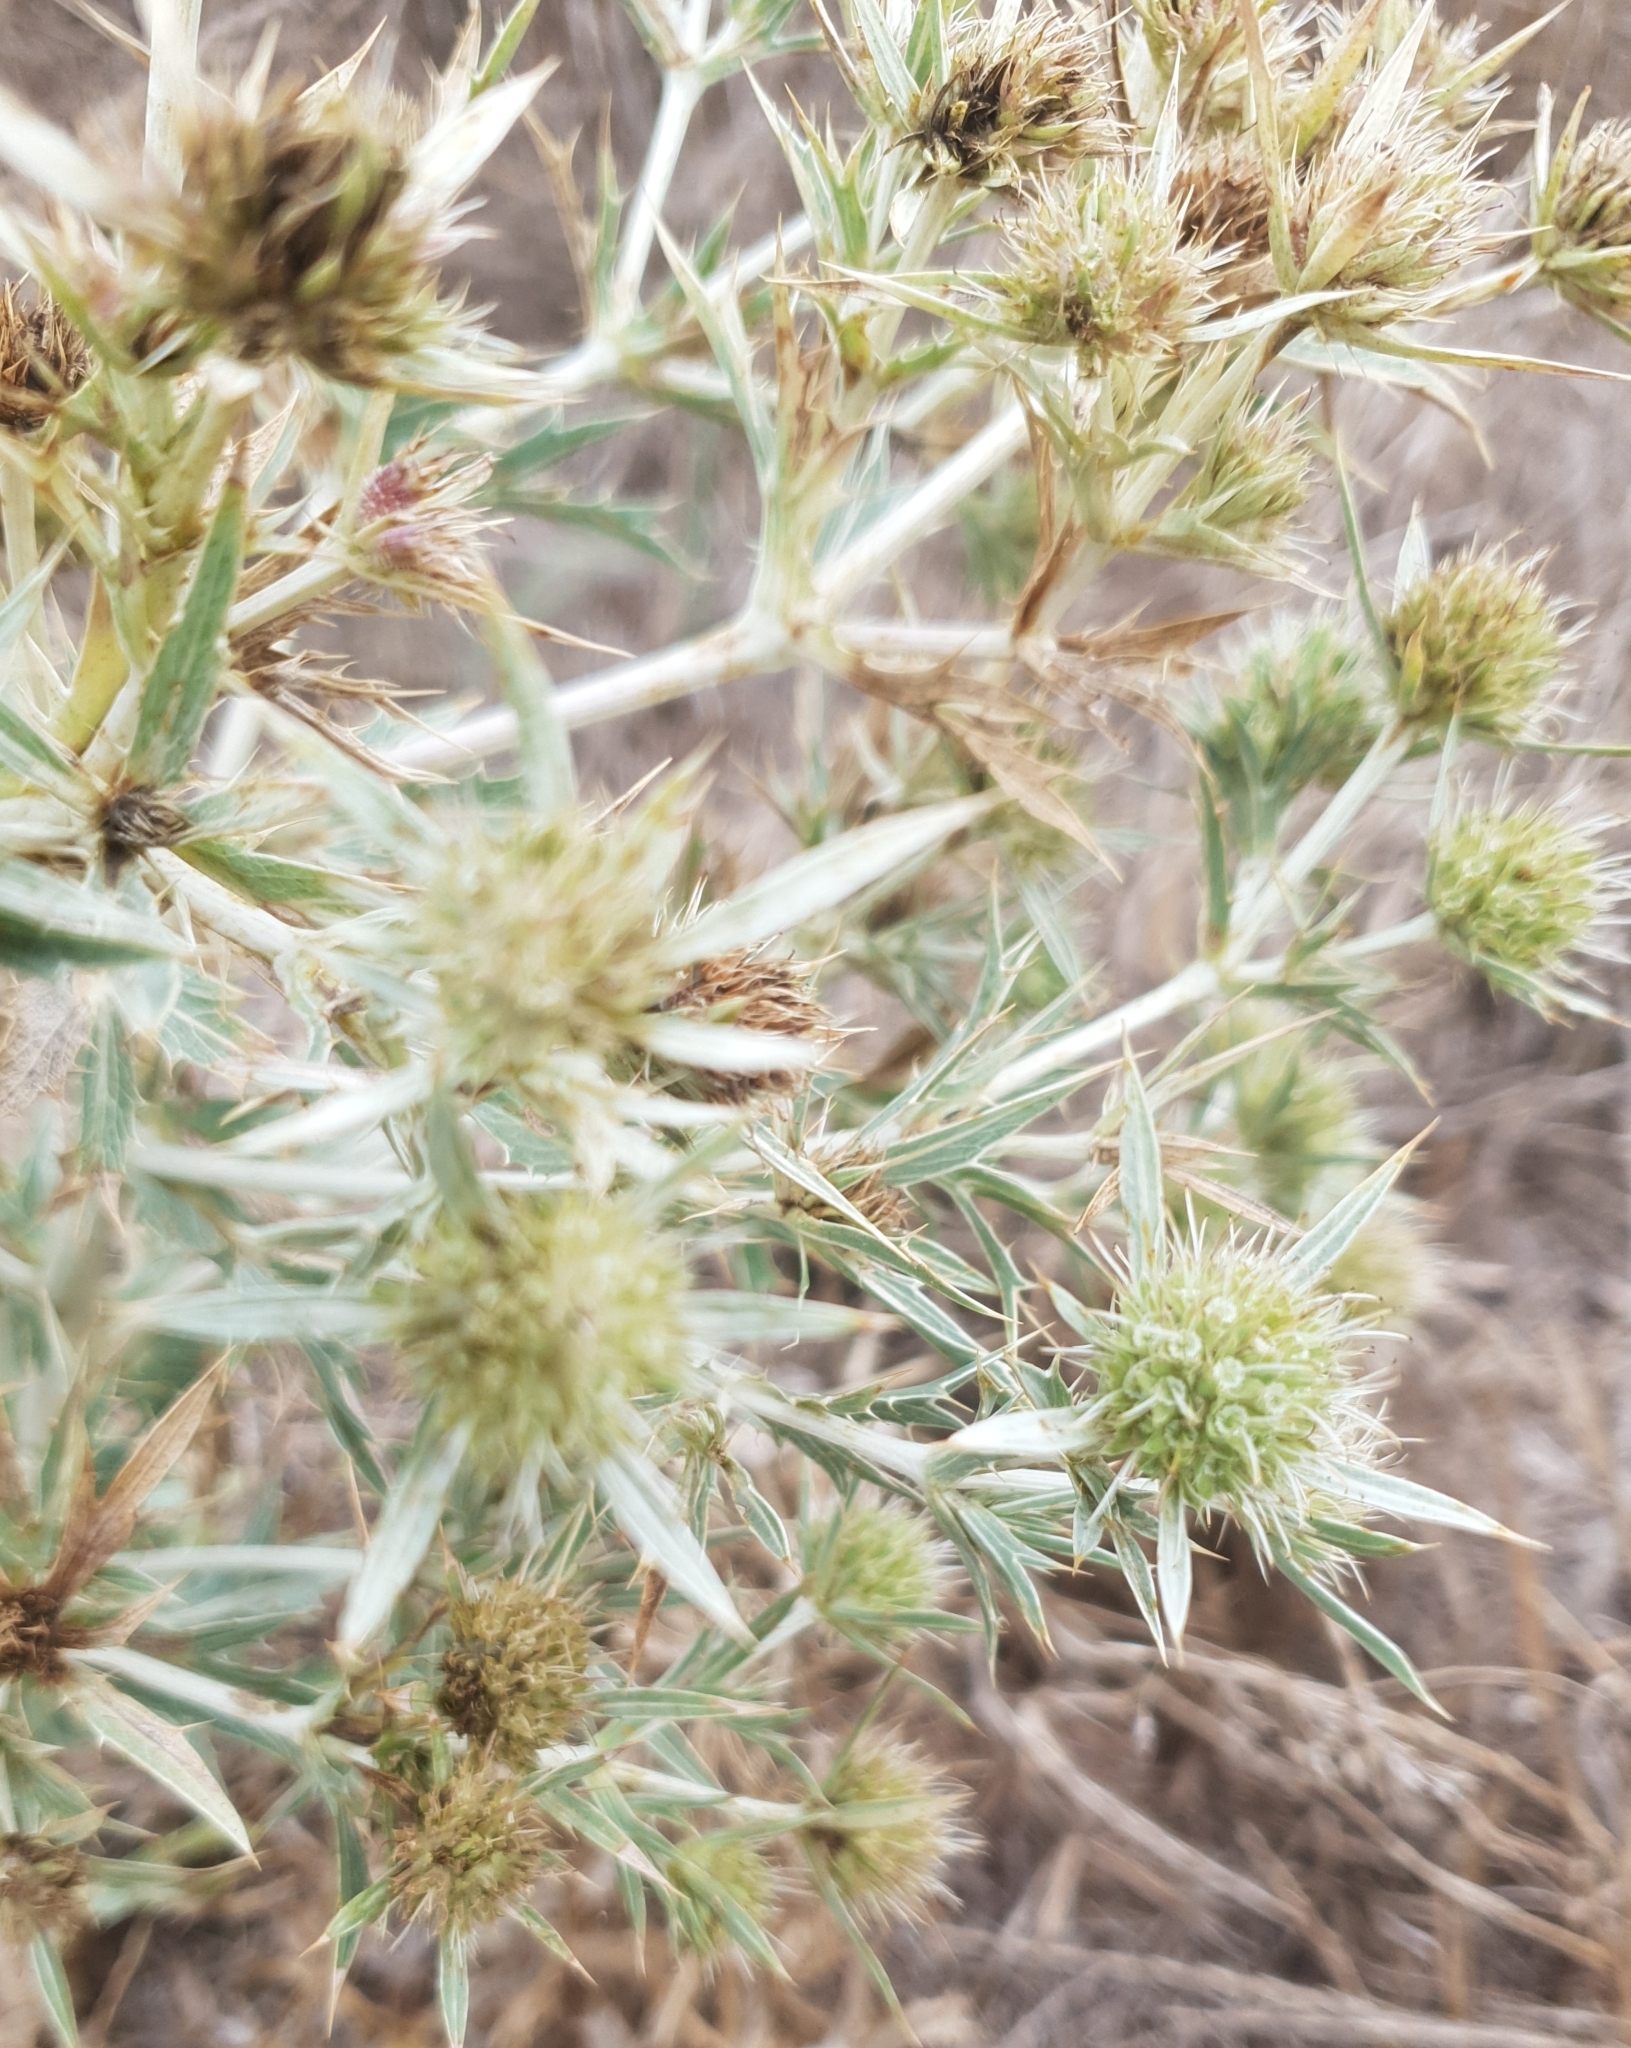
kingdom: Plantae
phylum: Tracheophyta
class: Magnoliopsida
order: Apiales
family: Apiaceae
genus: Eryngium
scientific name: Eryngium campestre
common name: Field eryngo
